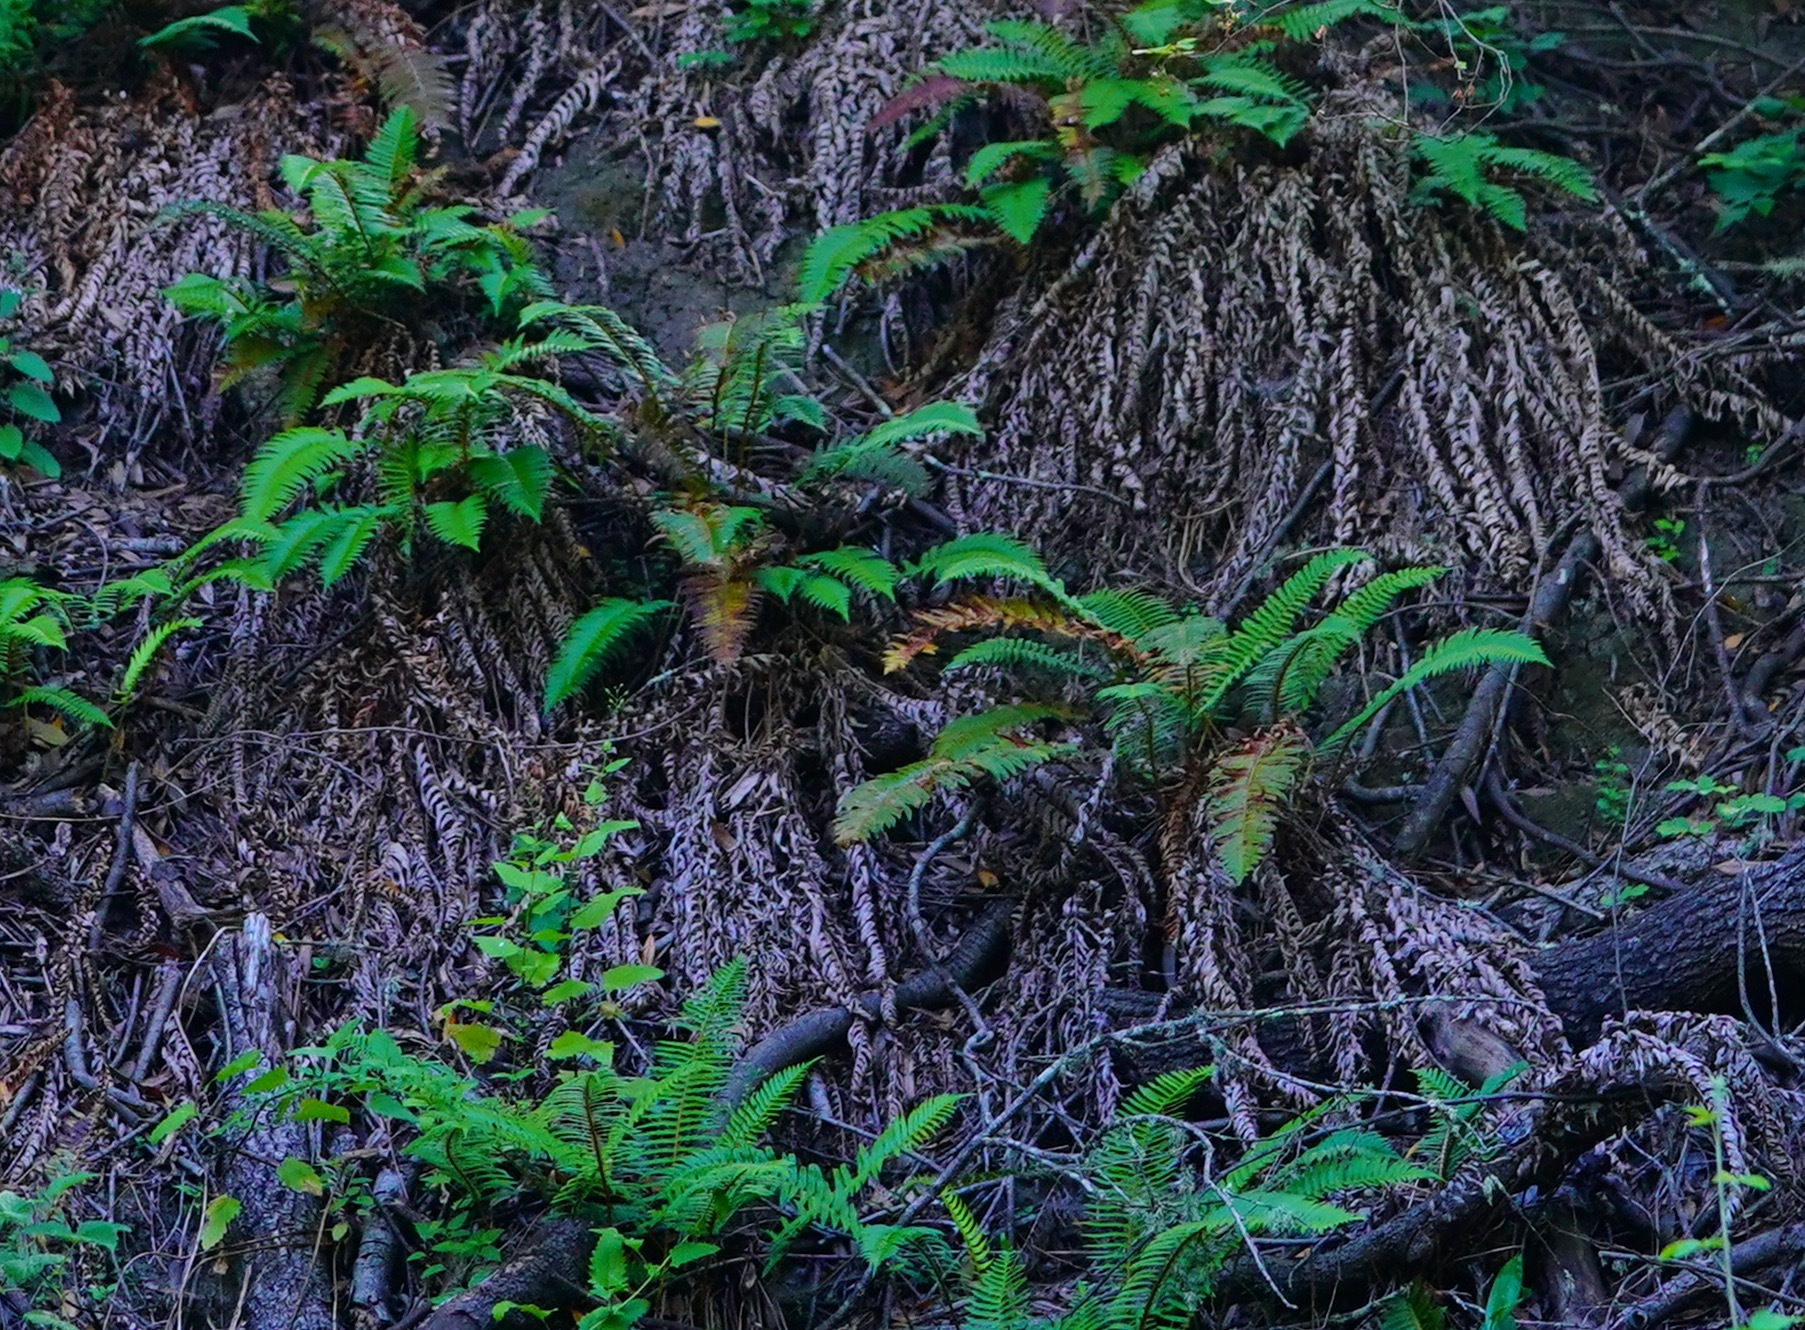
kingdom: Plantae
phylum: Tracheophyta
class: Polypodiopsida
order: Polypodiales
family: Dryopteridaceae
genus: Polystichum
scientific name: Polystichum munitum
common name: Western sword-fern
